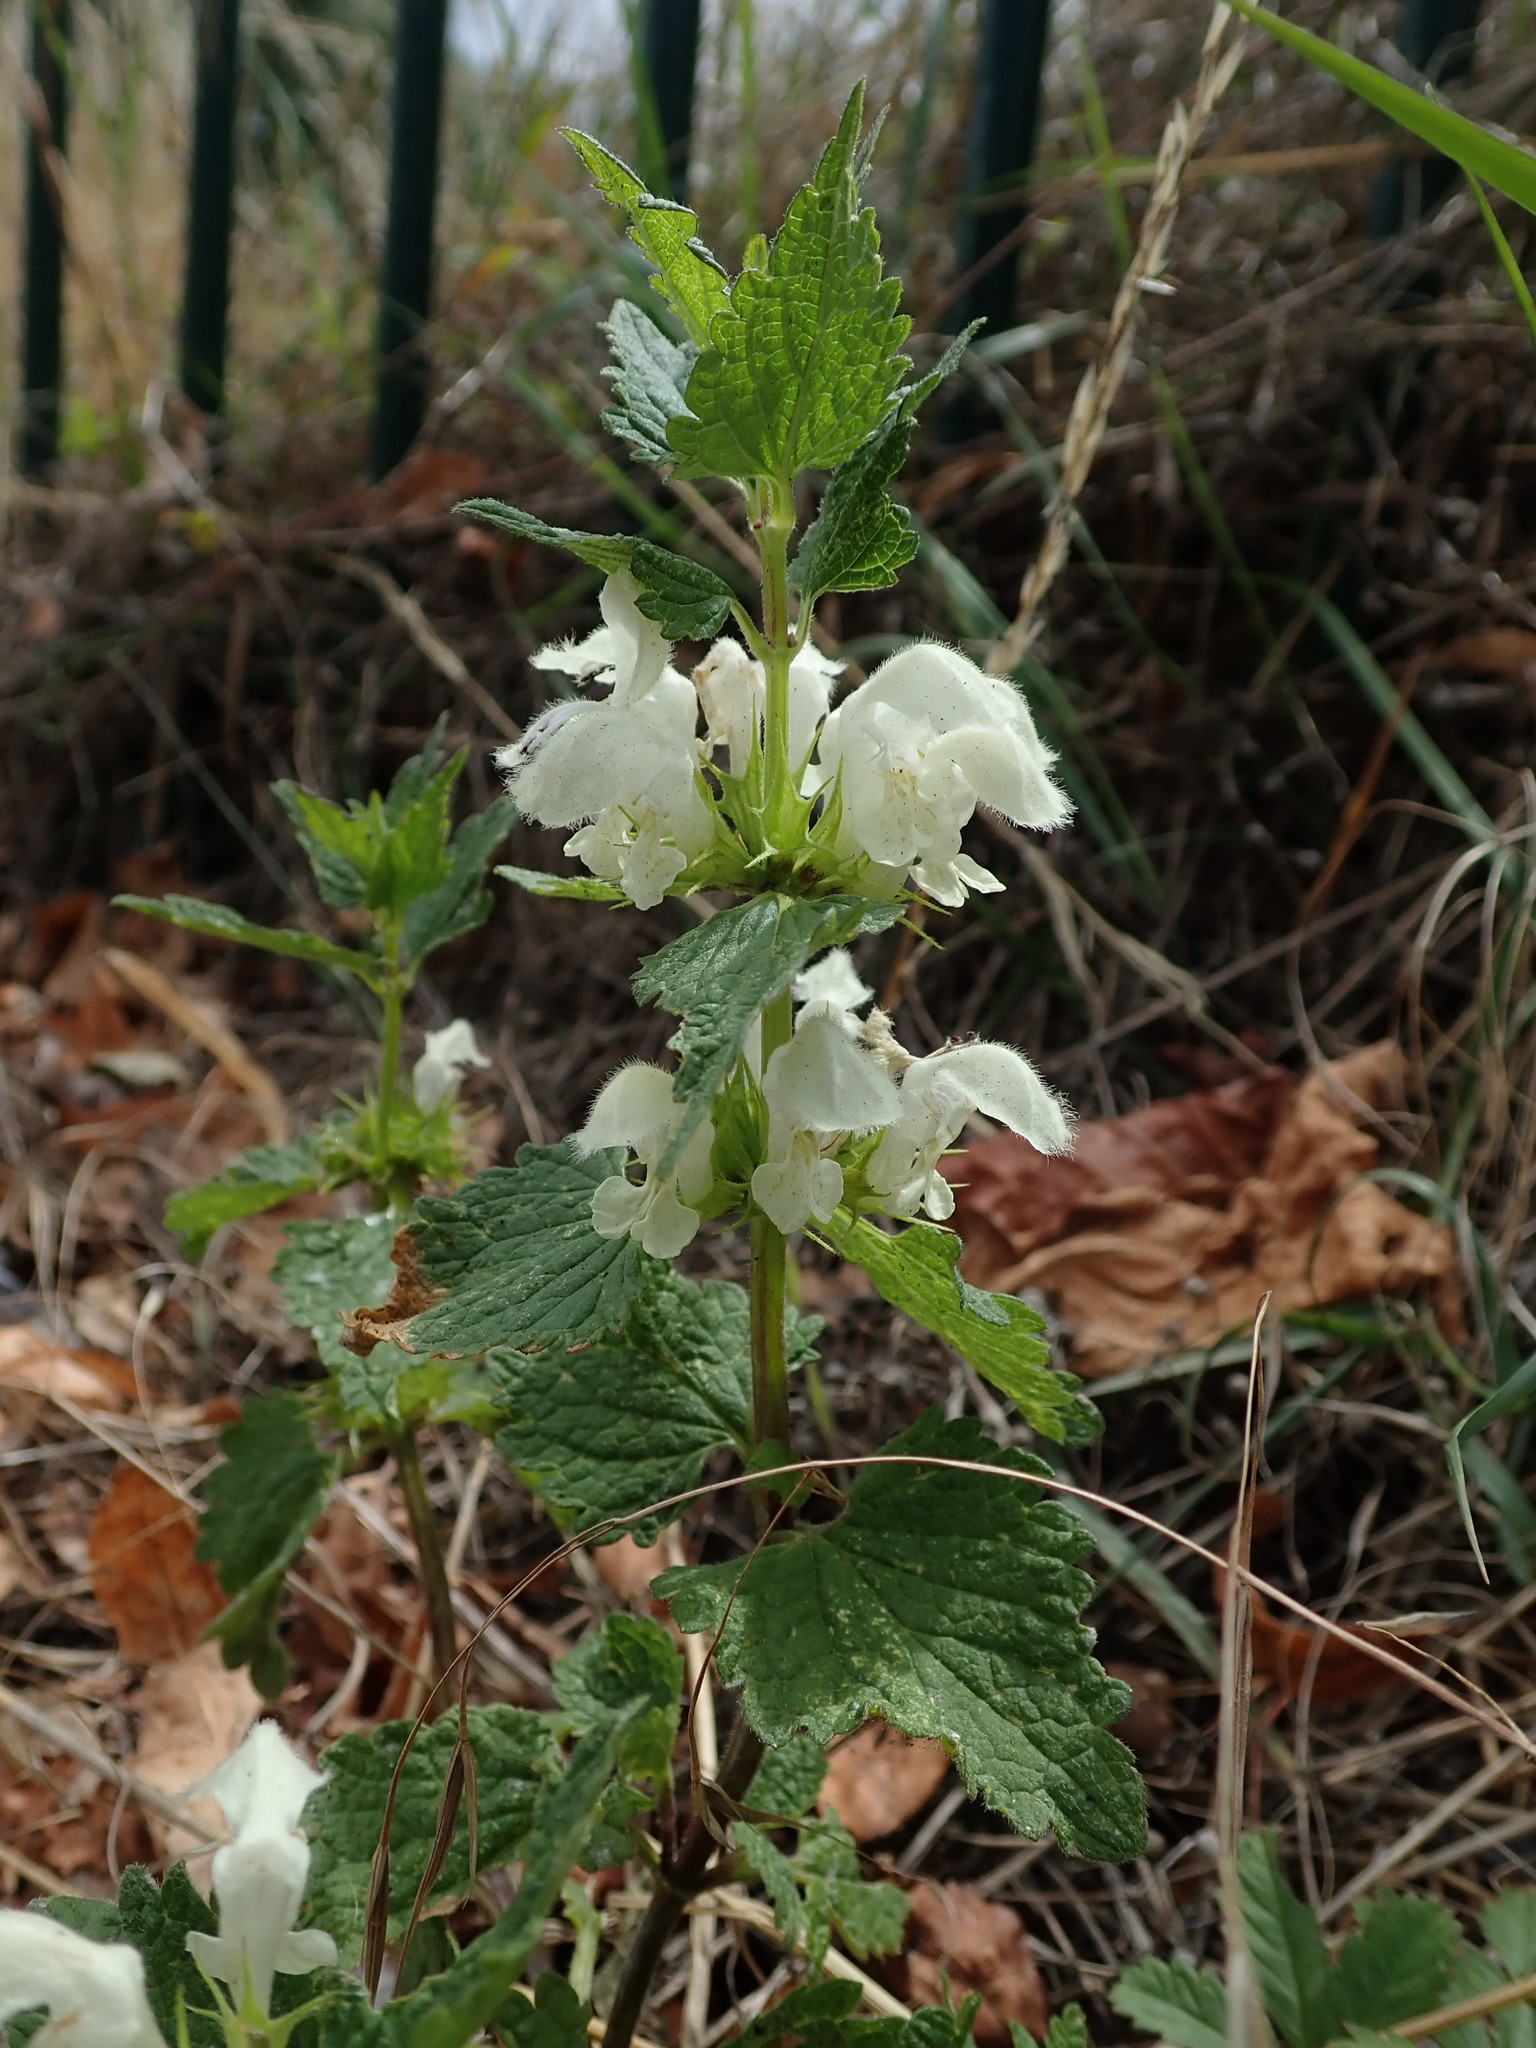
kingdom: Plantae
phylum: Tracheophyta
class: Magnoliopsida
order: Lamiales
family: Lamiaceae
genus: Lamium
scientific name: Lamium album
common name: White dead-nettle
